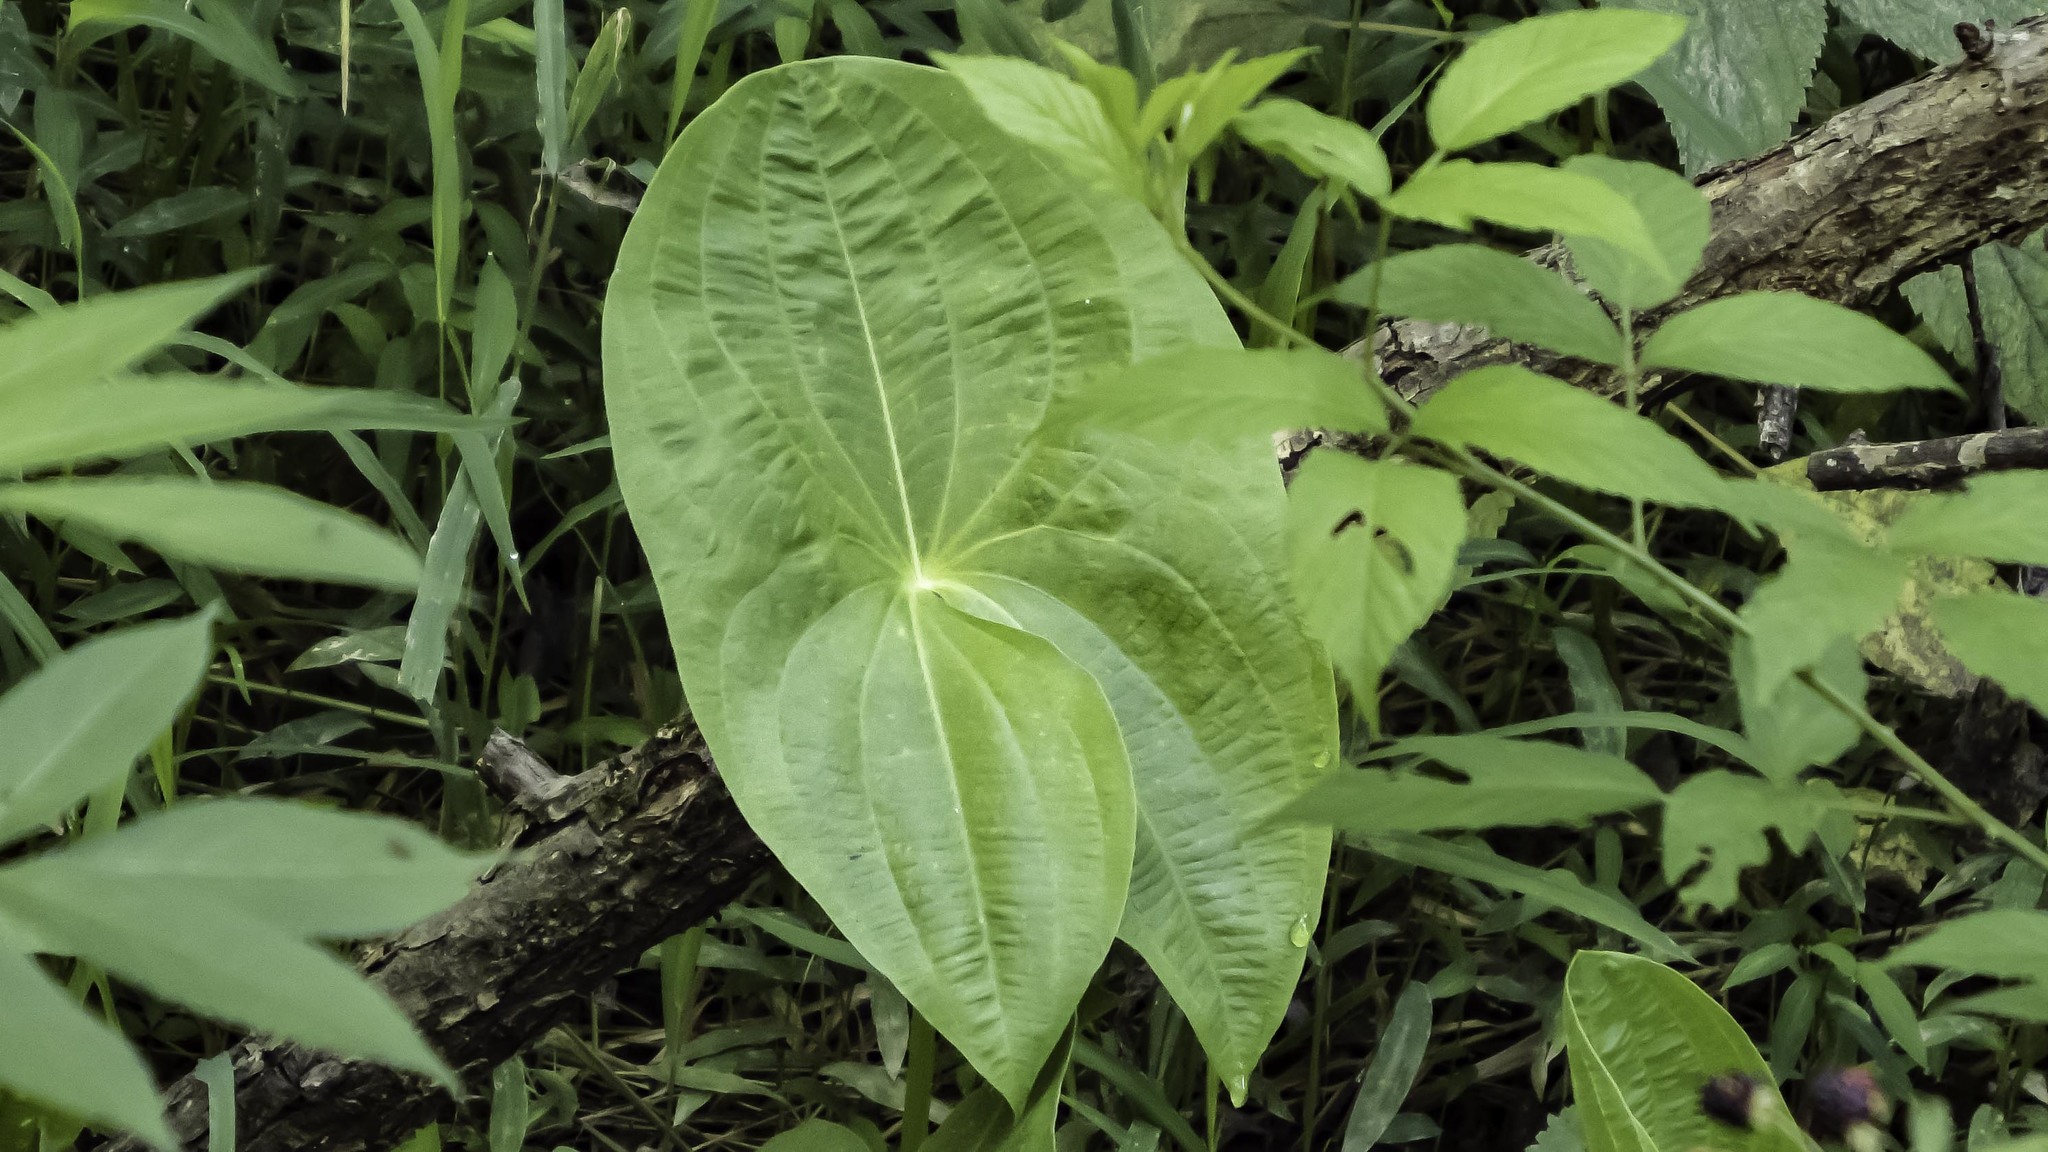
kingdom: Plantae
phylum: Tracheophyta
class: Liliopsida
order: Alismatales
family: Alismataceae
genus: Sagittaria
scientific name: Sagittaria latifolia
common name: Duck-potato
